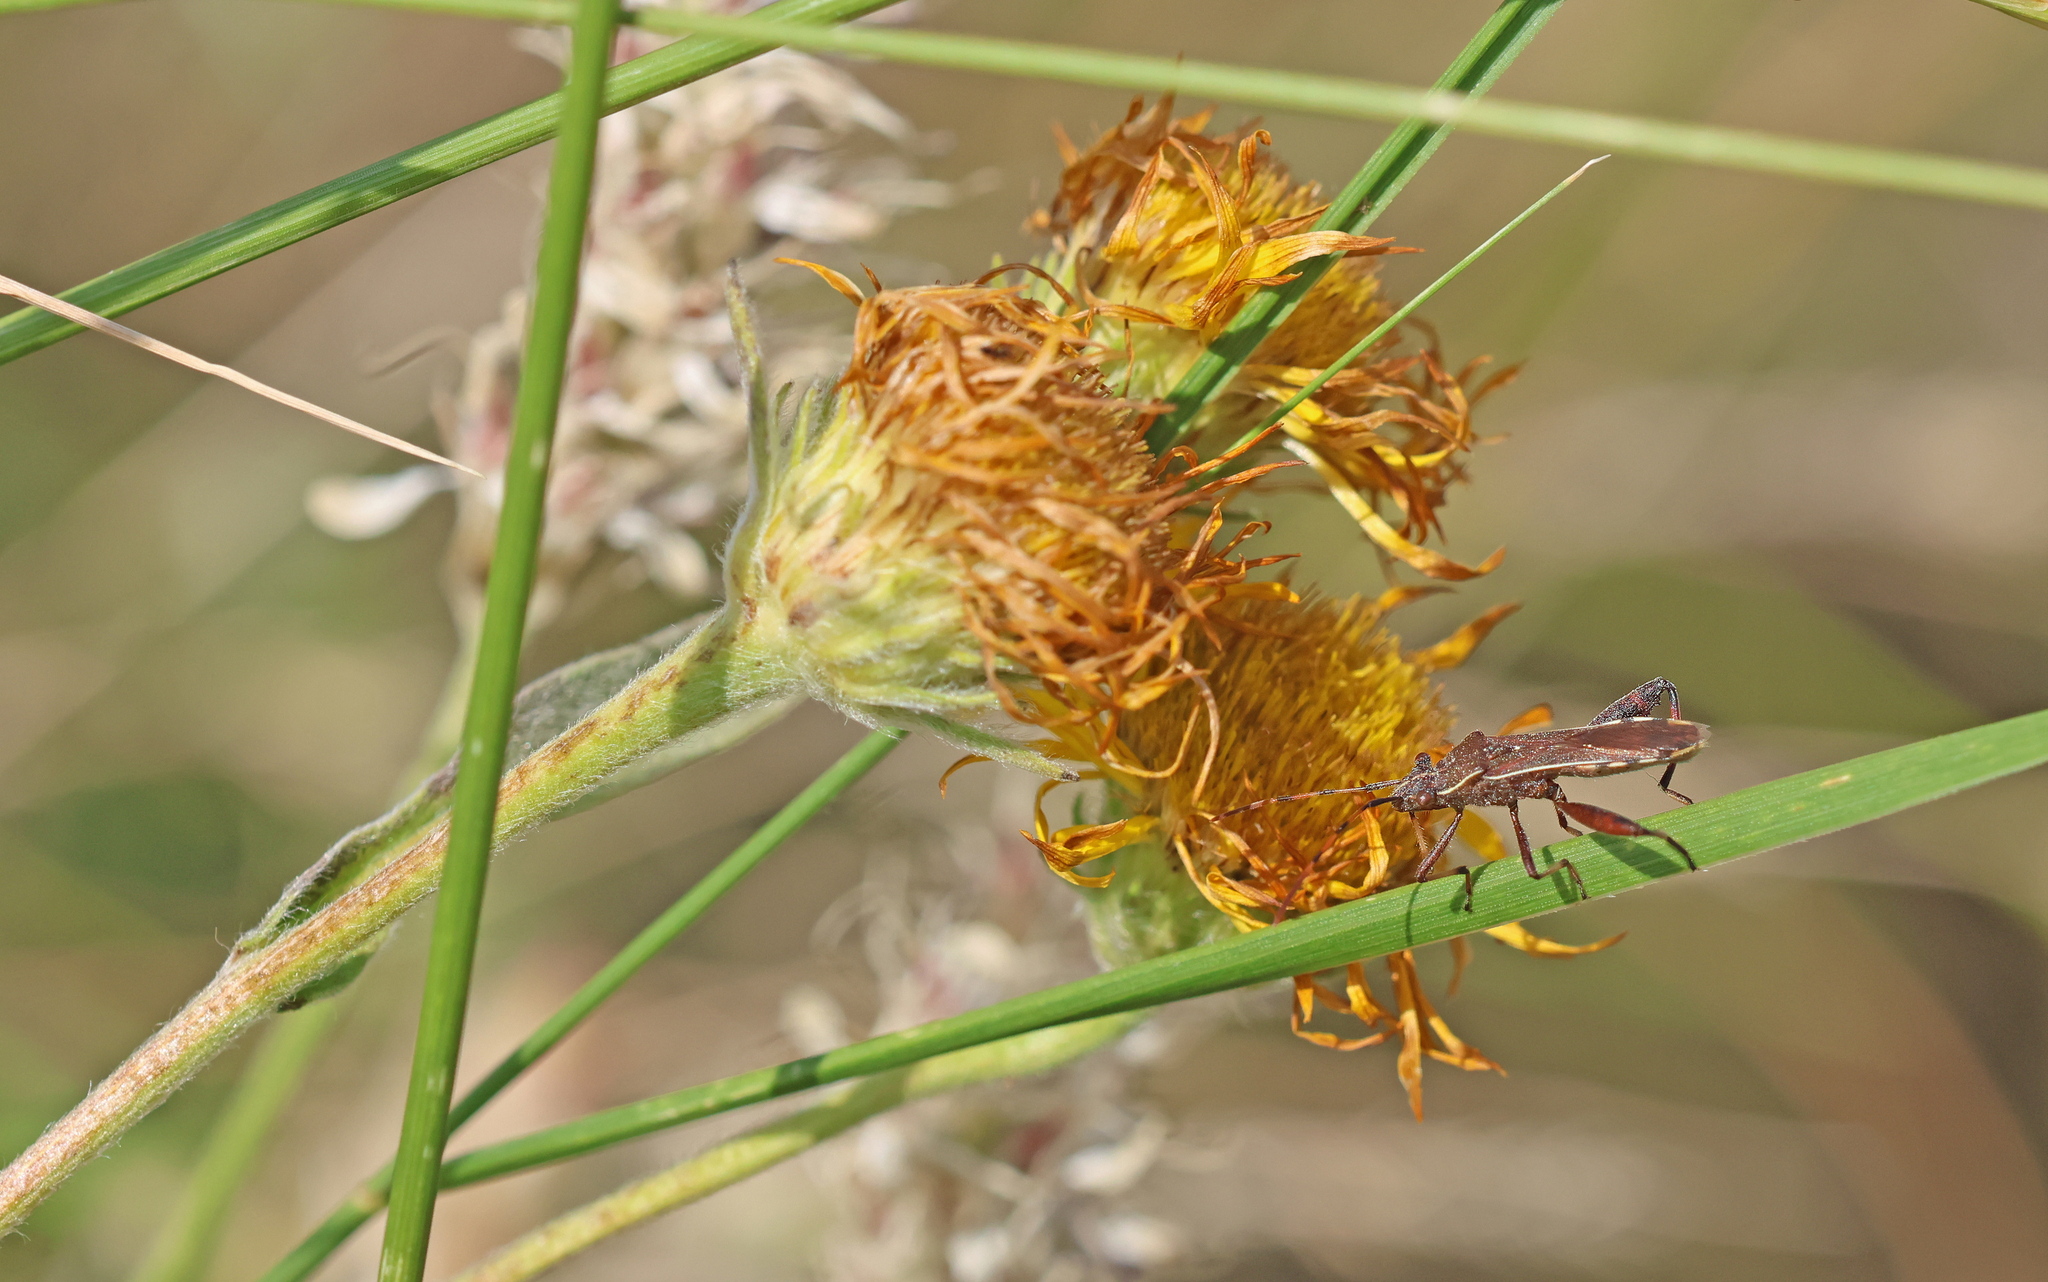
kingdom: Animalia
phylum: Arthropoda
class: Insecta
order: Hemiptera
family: Alydidae
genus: Camptopus
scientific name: Camptopus lateralis
